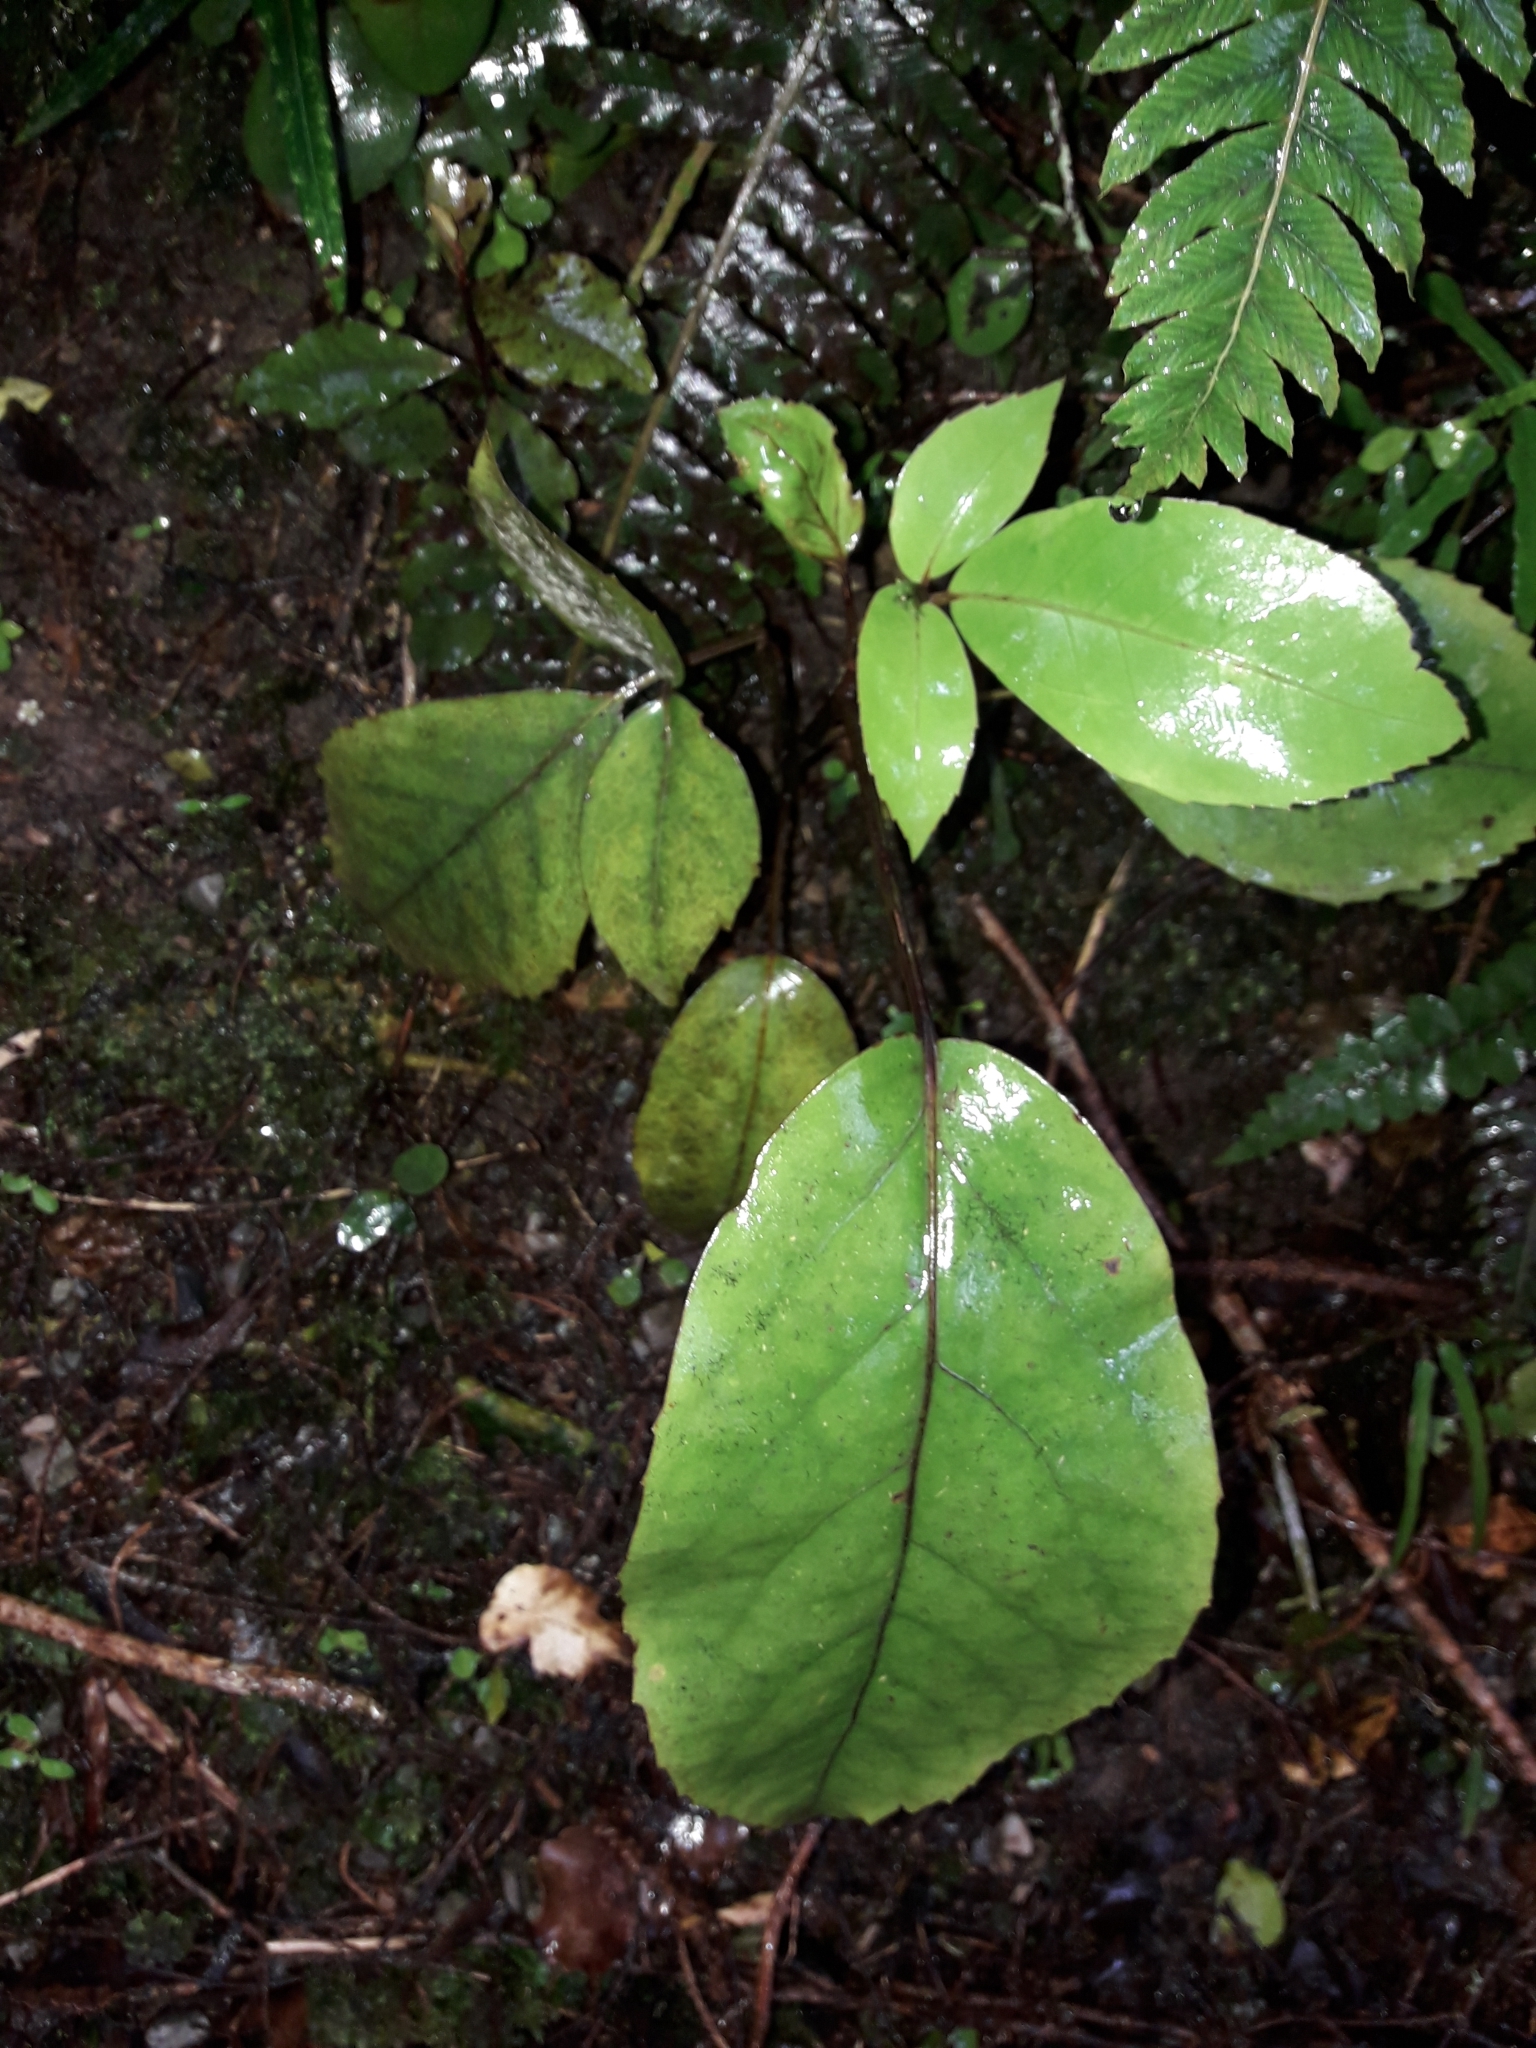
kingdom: Plantae
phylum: Tracheophyta
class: Magnoliopsida
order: Apiales
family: Araliaceae
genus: Neopanax
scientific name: Neopanax laetus
